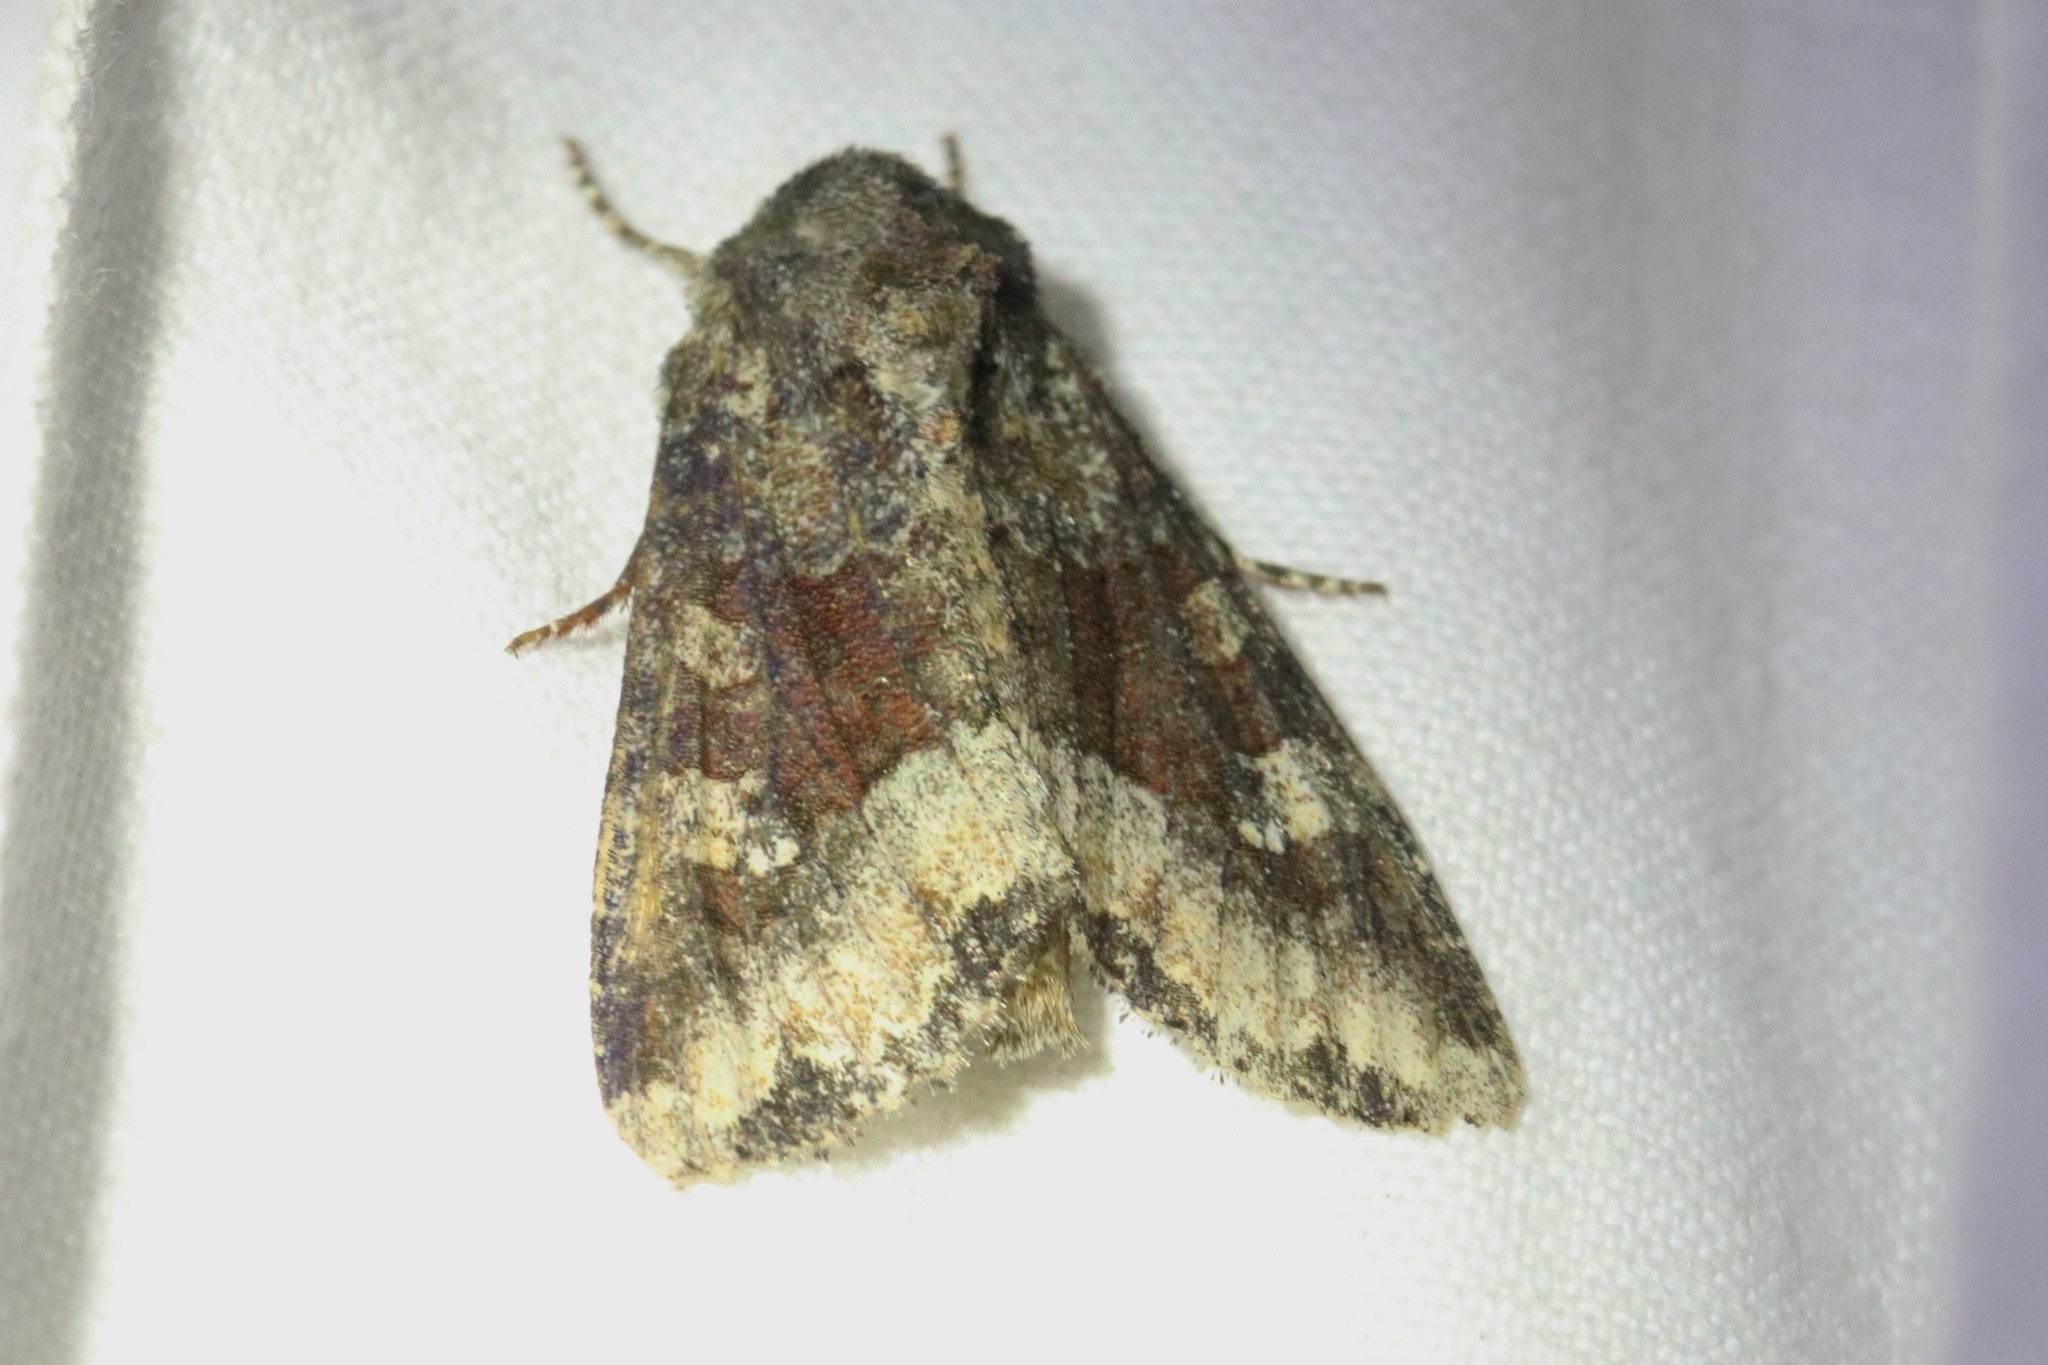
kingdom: Animalia
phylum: Arthropoda
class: Insecta
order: Lepidoptera
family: Noctuidae
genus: Apamea
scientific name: Apamea amputatrix
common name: Yellow-headed cutworm moth
